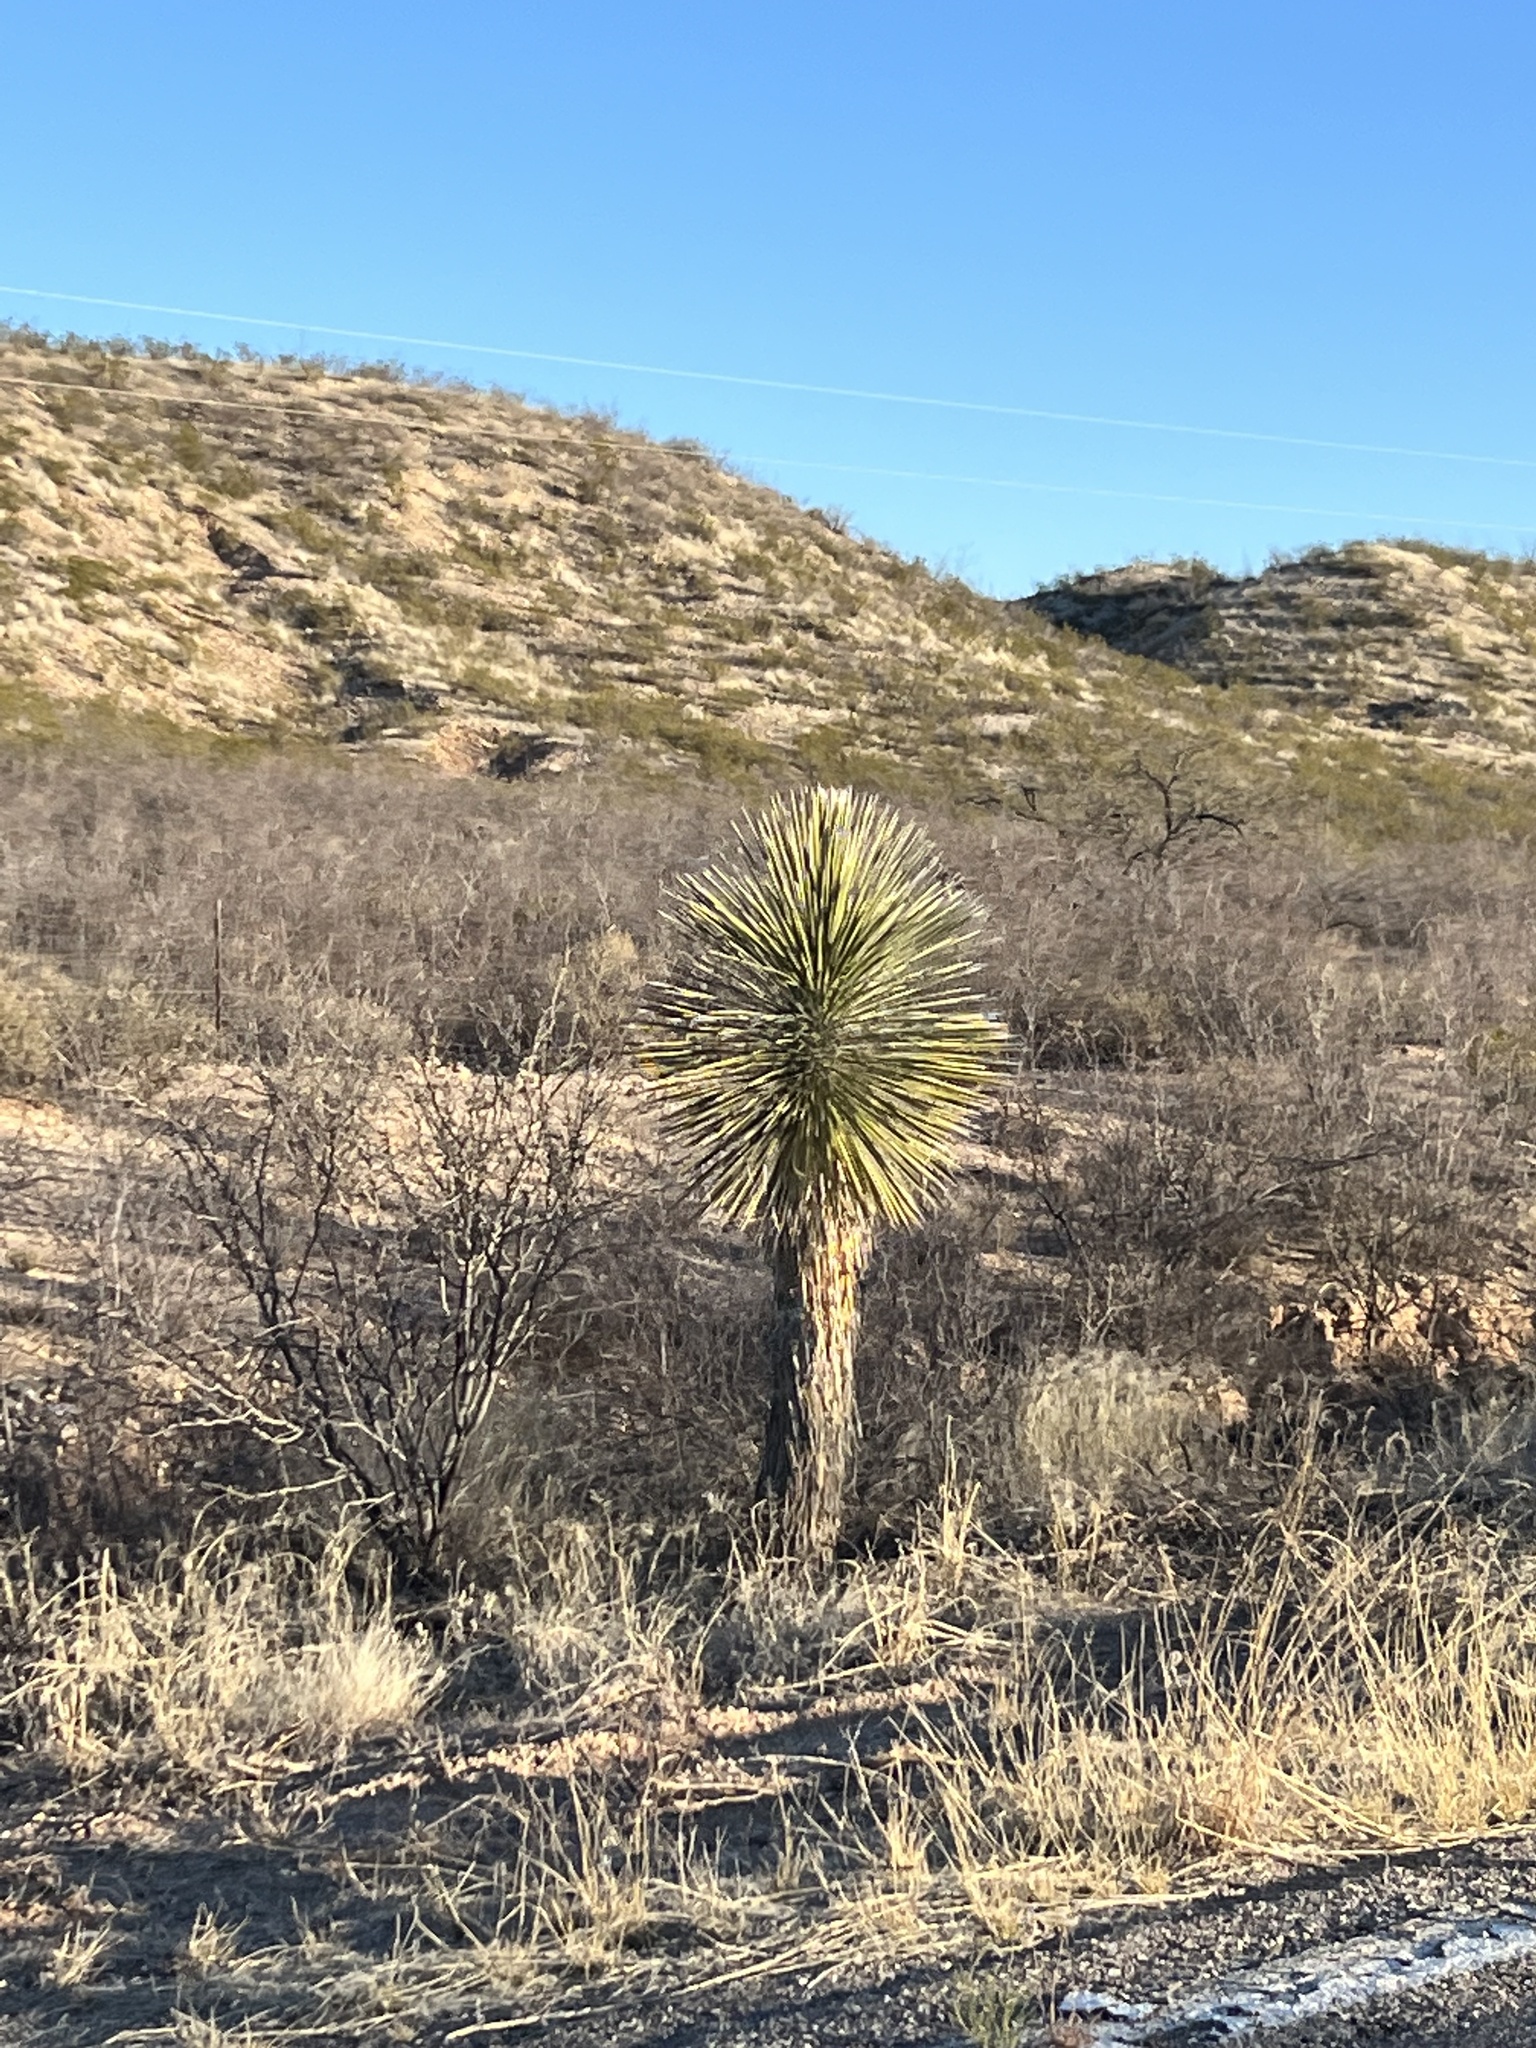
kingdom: Plantae
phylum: Tracheophyta
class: Liliopsida
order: Asparagales
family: Asparagaceae
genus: Yucca
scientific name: Yucca elata
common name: Palmella
